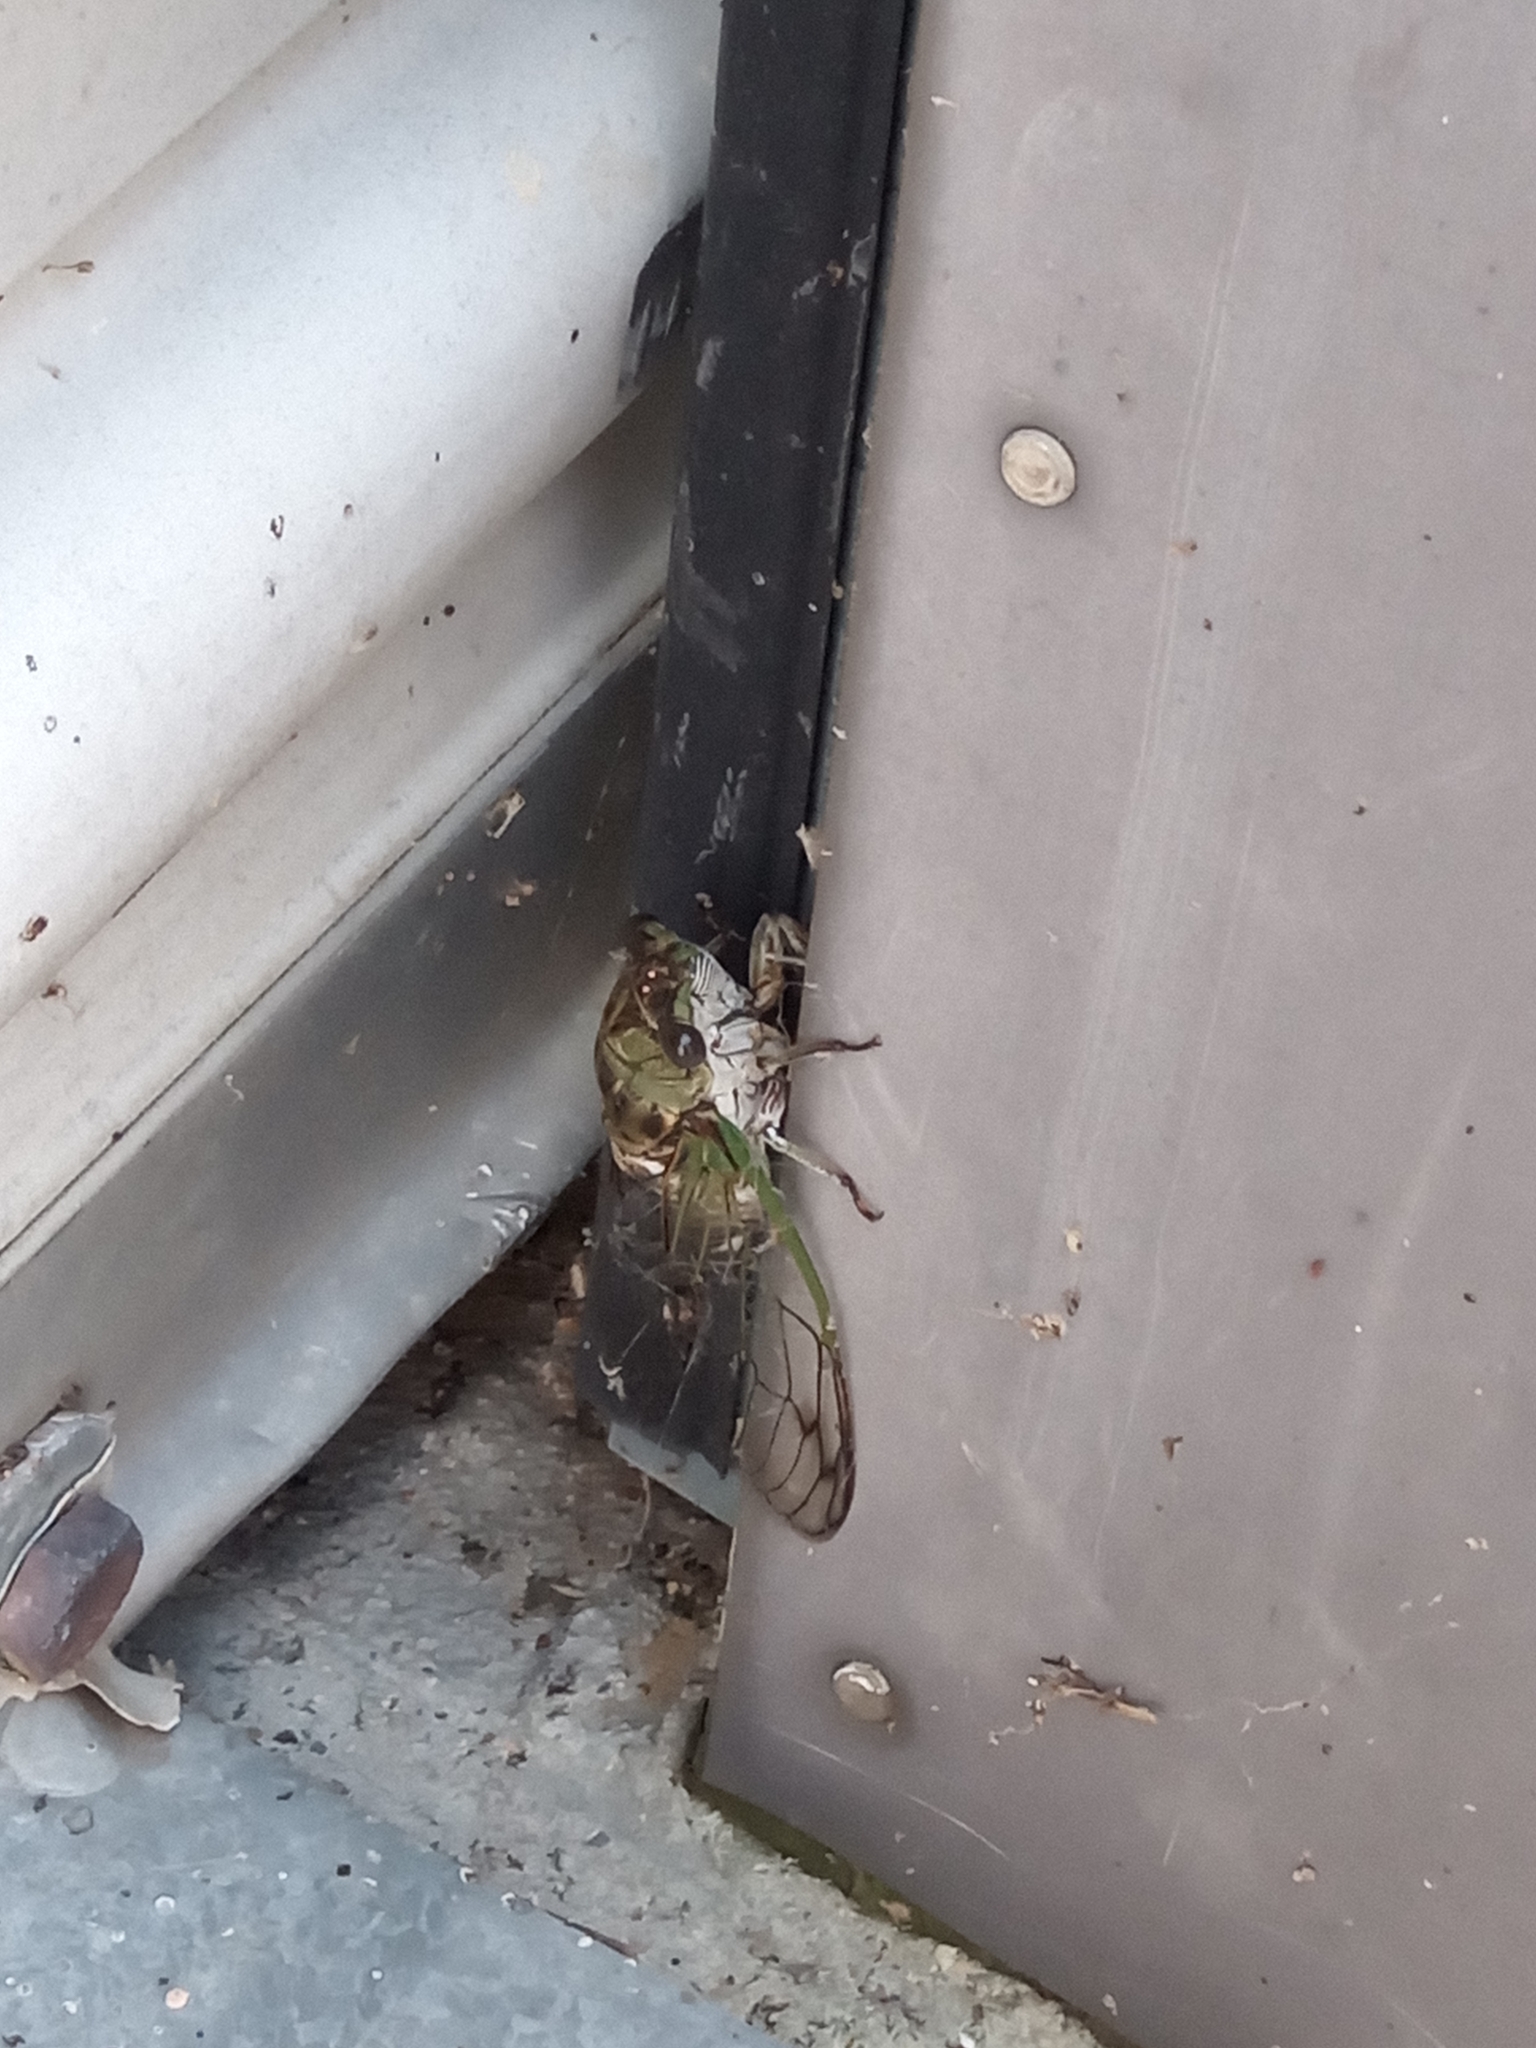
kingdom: Animalia
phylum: Arthropoda
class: Insecta
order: Hemiptera
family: Cicadidae
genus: Neotibicen
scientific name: Neotibicen canicularis
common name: God-day cicada
